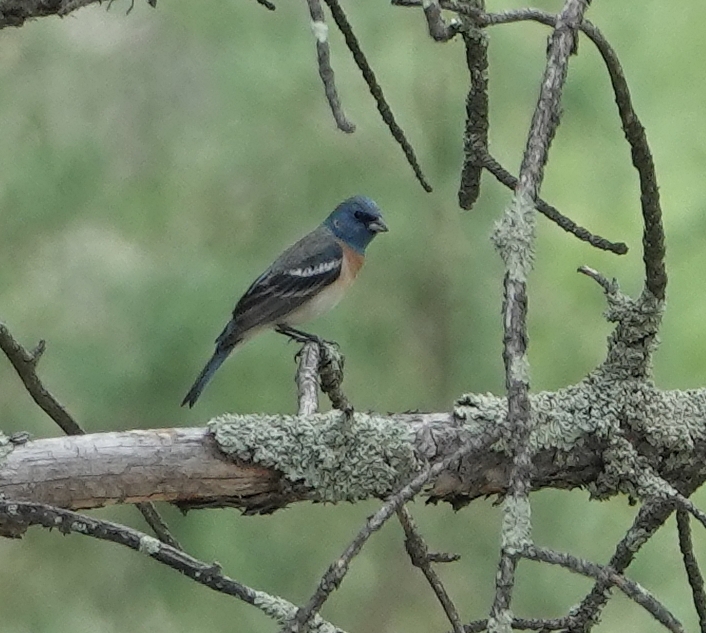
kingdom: Animalia
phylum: Chordata
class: Aves
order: Passeriformes
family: Cardinalidae
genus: Passerina
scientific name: Passerina amoena
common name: Lazuli bunting
